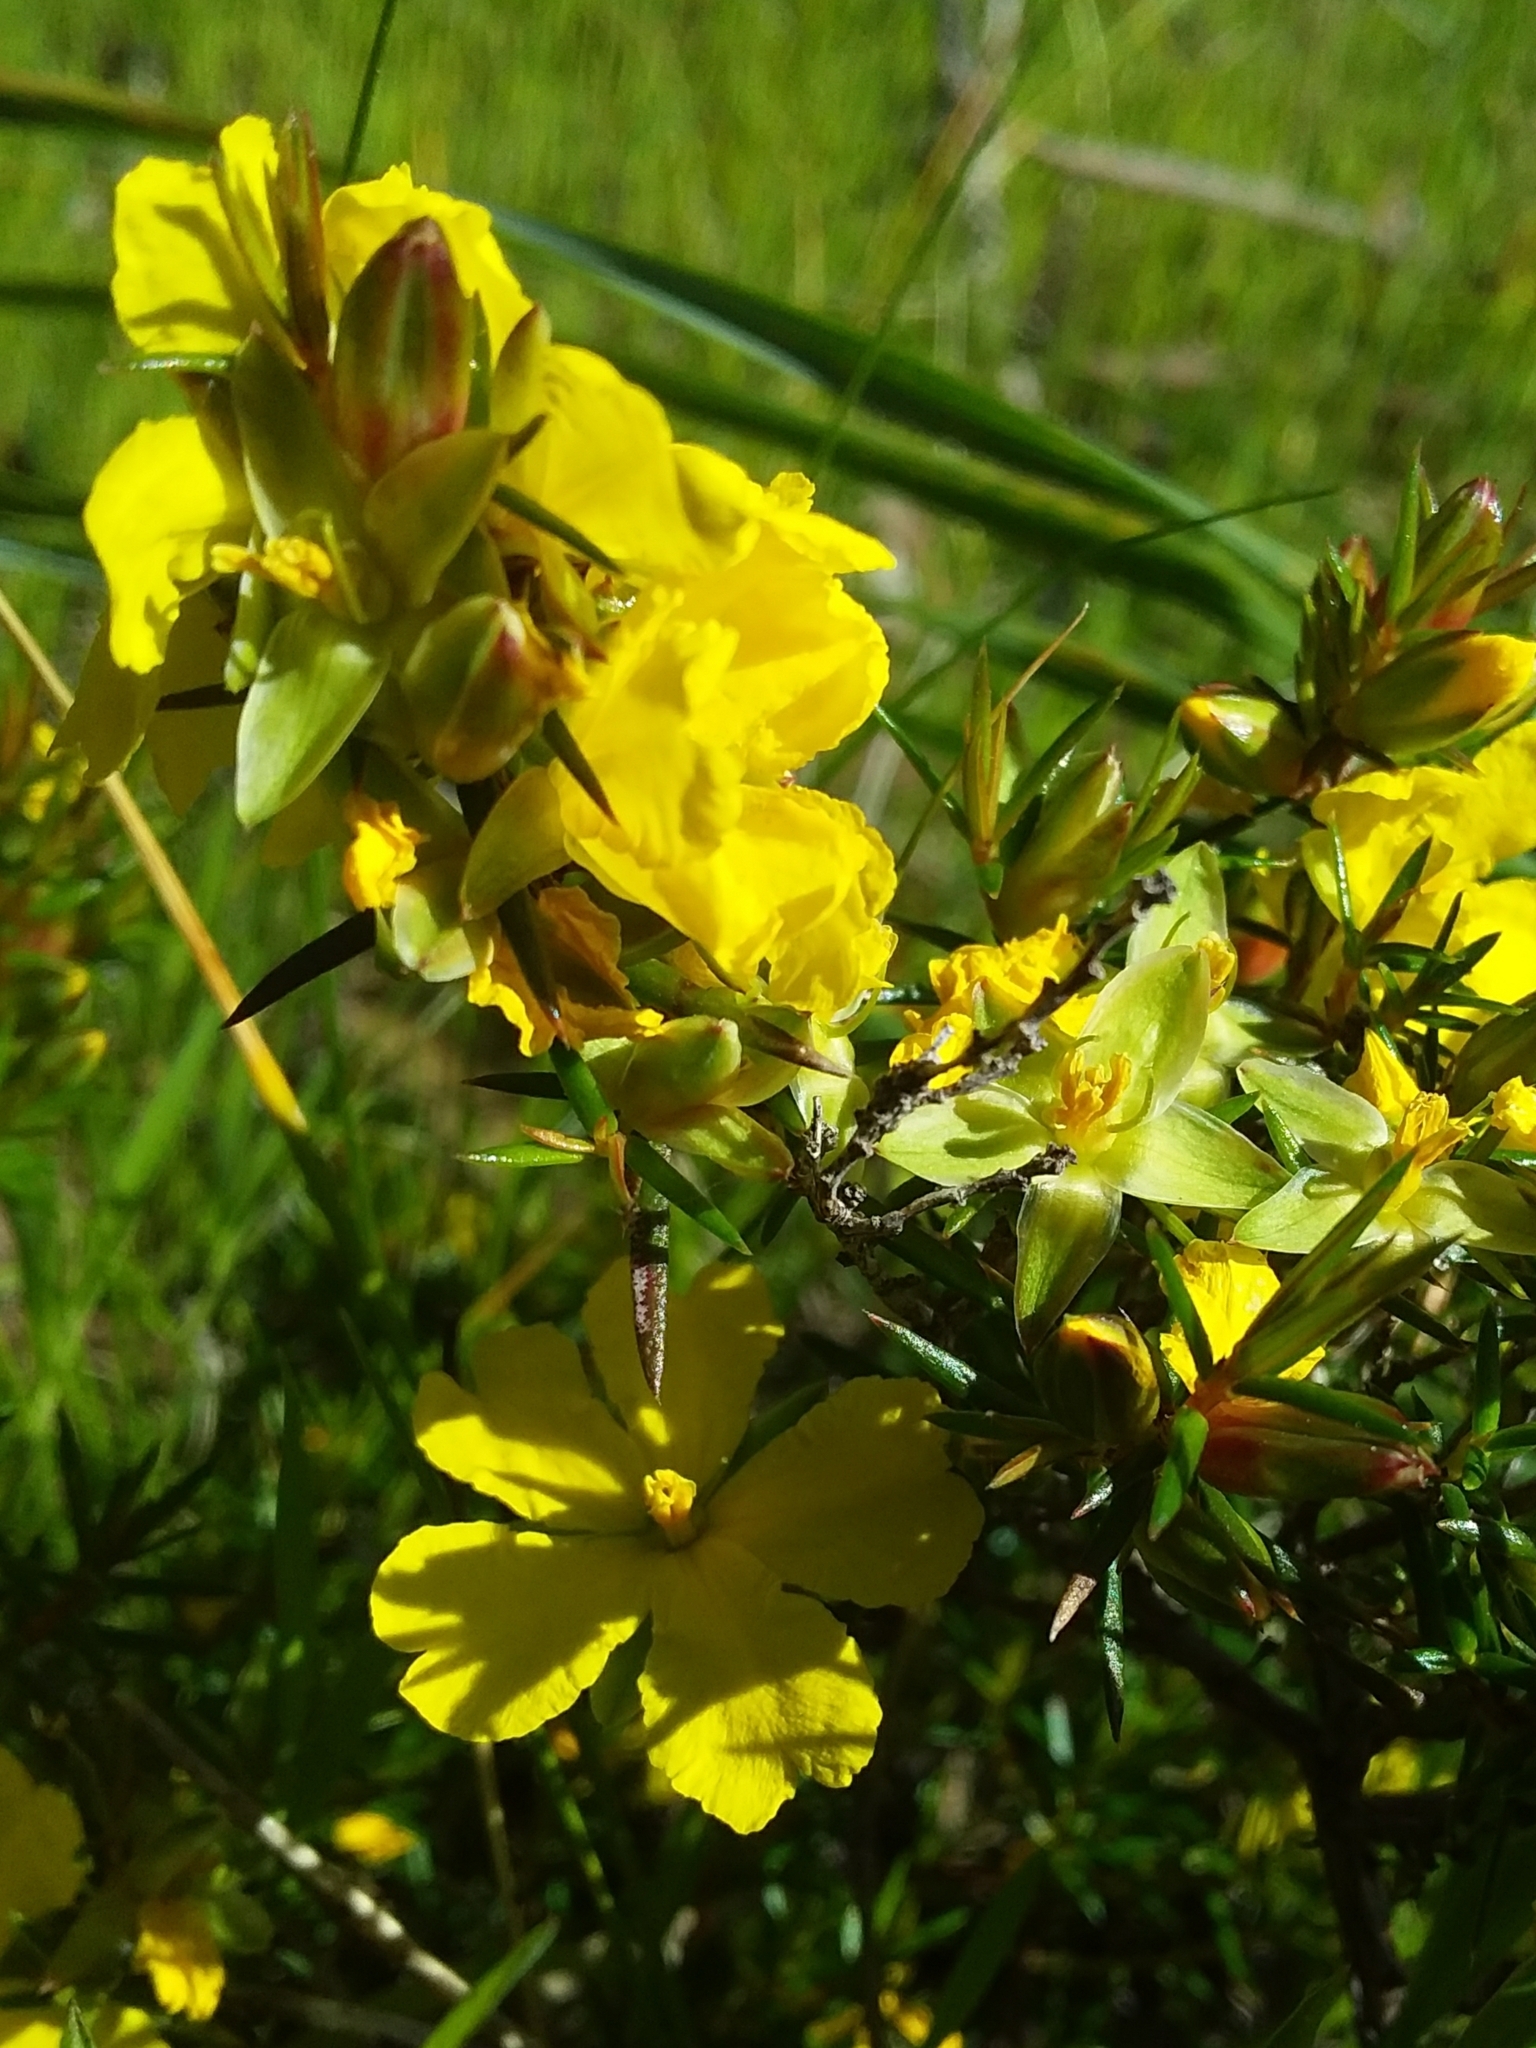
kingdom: Plantae
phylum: Tracheophyta
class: Magnoliopsida
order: Dilleniales
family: Dilleniaceae
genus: Hibbertia
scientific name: Hibbertia exutiacies
